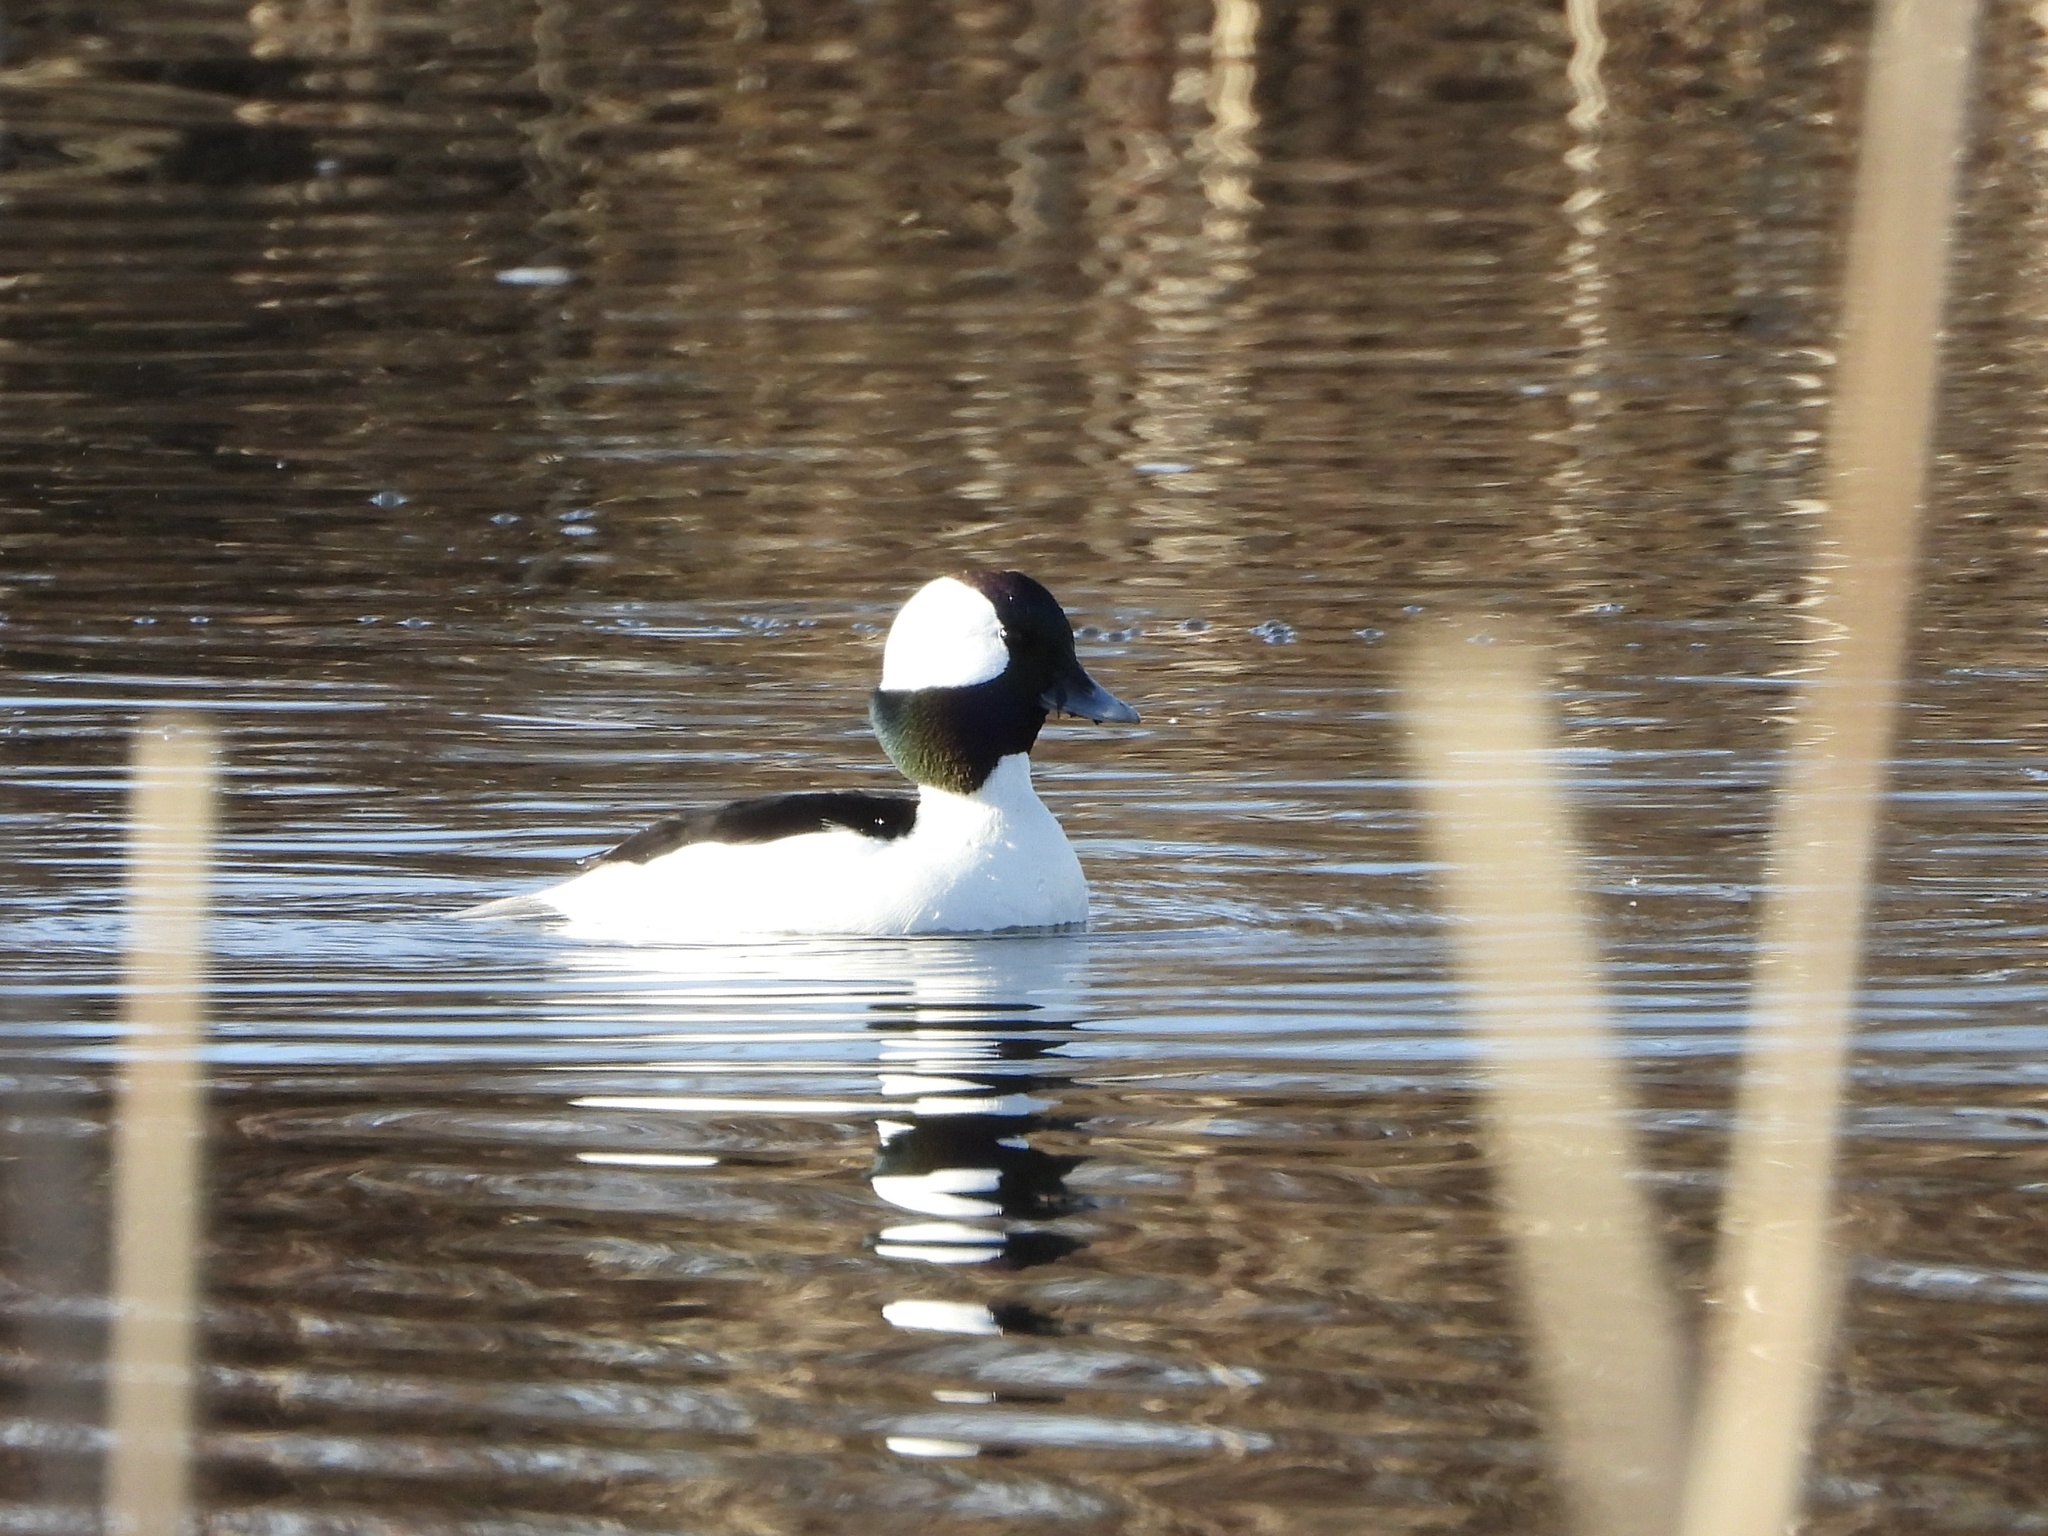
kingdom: Animalia
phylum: Chordata
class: Aves
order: Anseriformes
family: Anatidae
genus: Bucephala
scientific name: Bucephala albeola
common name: Bufflehead
